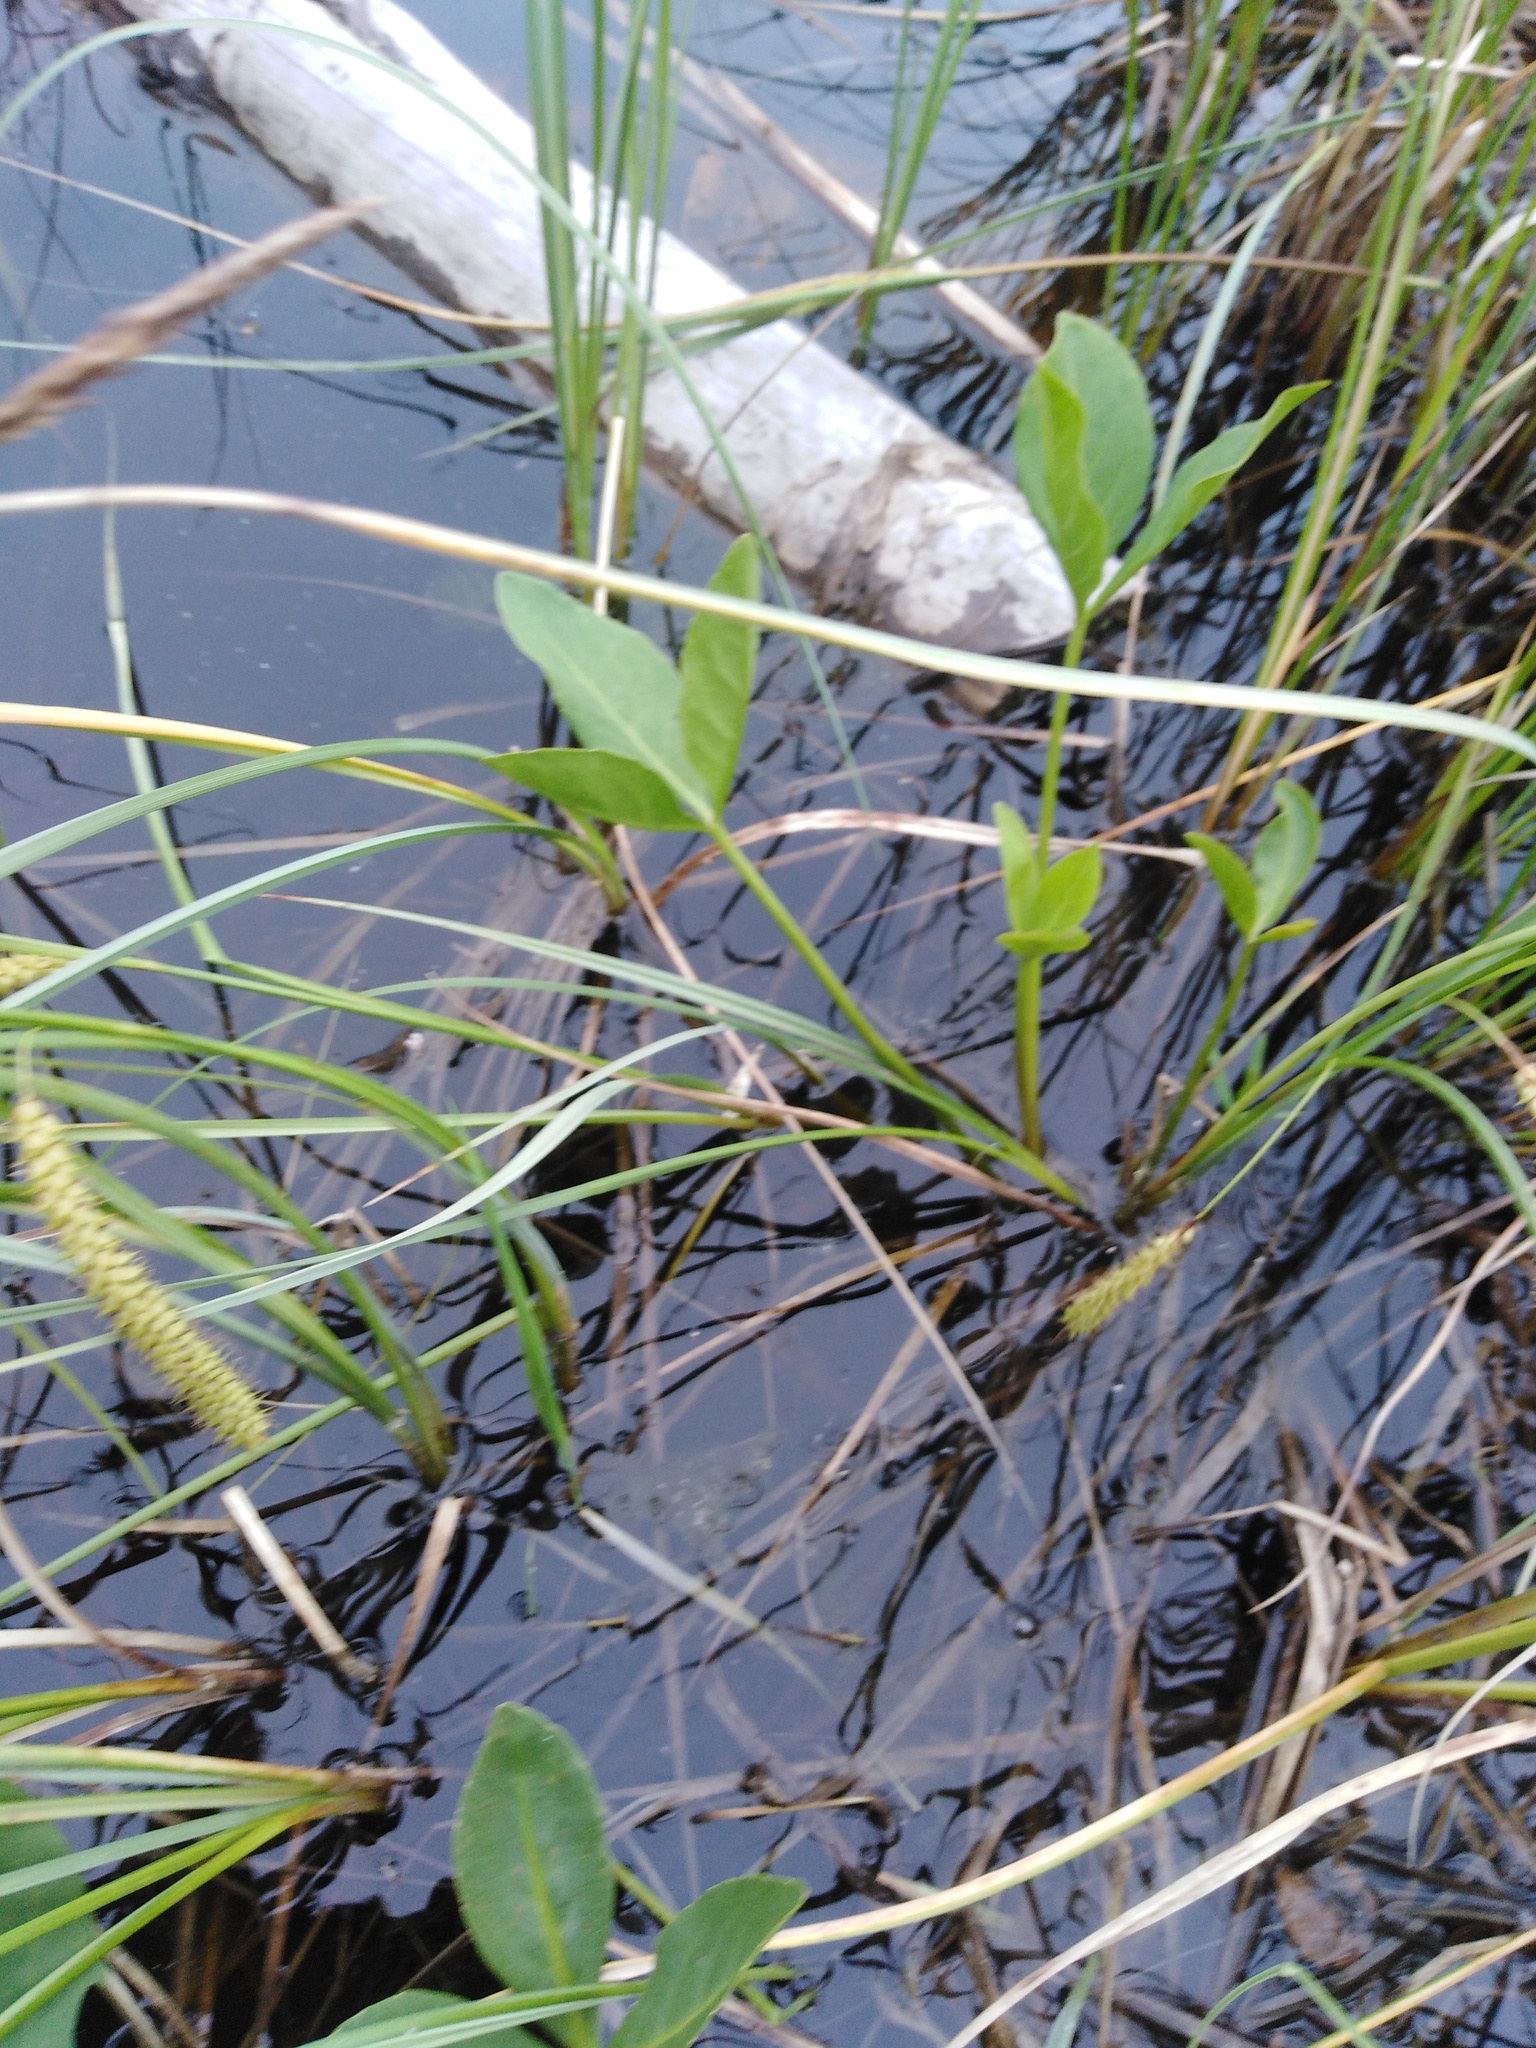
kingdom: Plantae
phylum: Tracheophyta
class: Magnoliopsida
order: Asterales
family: Menyanthaceae
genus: Menyanthes
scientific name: Menyanthes trifoliata
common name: Bogbean
